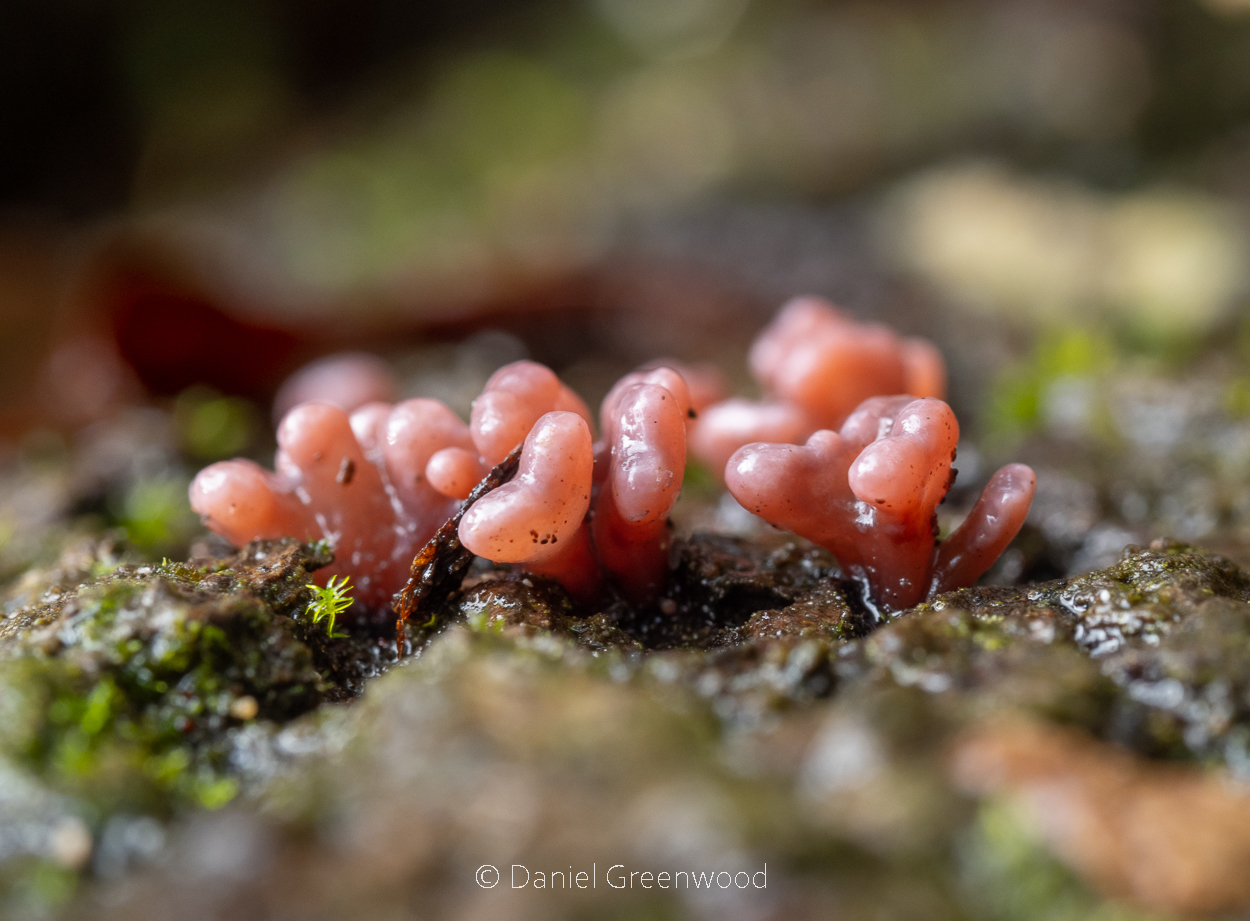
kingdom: Fungi
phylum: Ascomycota
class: Leotiomycetes
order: Helotiales
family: Gelatinodiscaceae
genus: Ascocoryne
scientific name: Ascocoryne sarcoides
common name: Purple jellydisc
